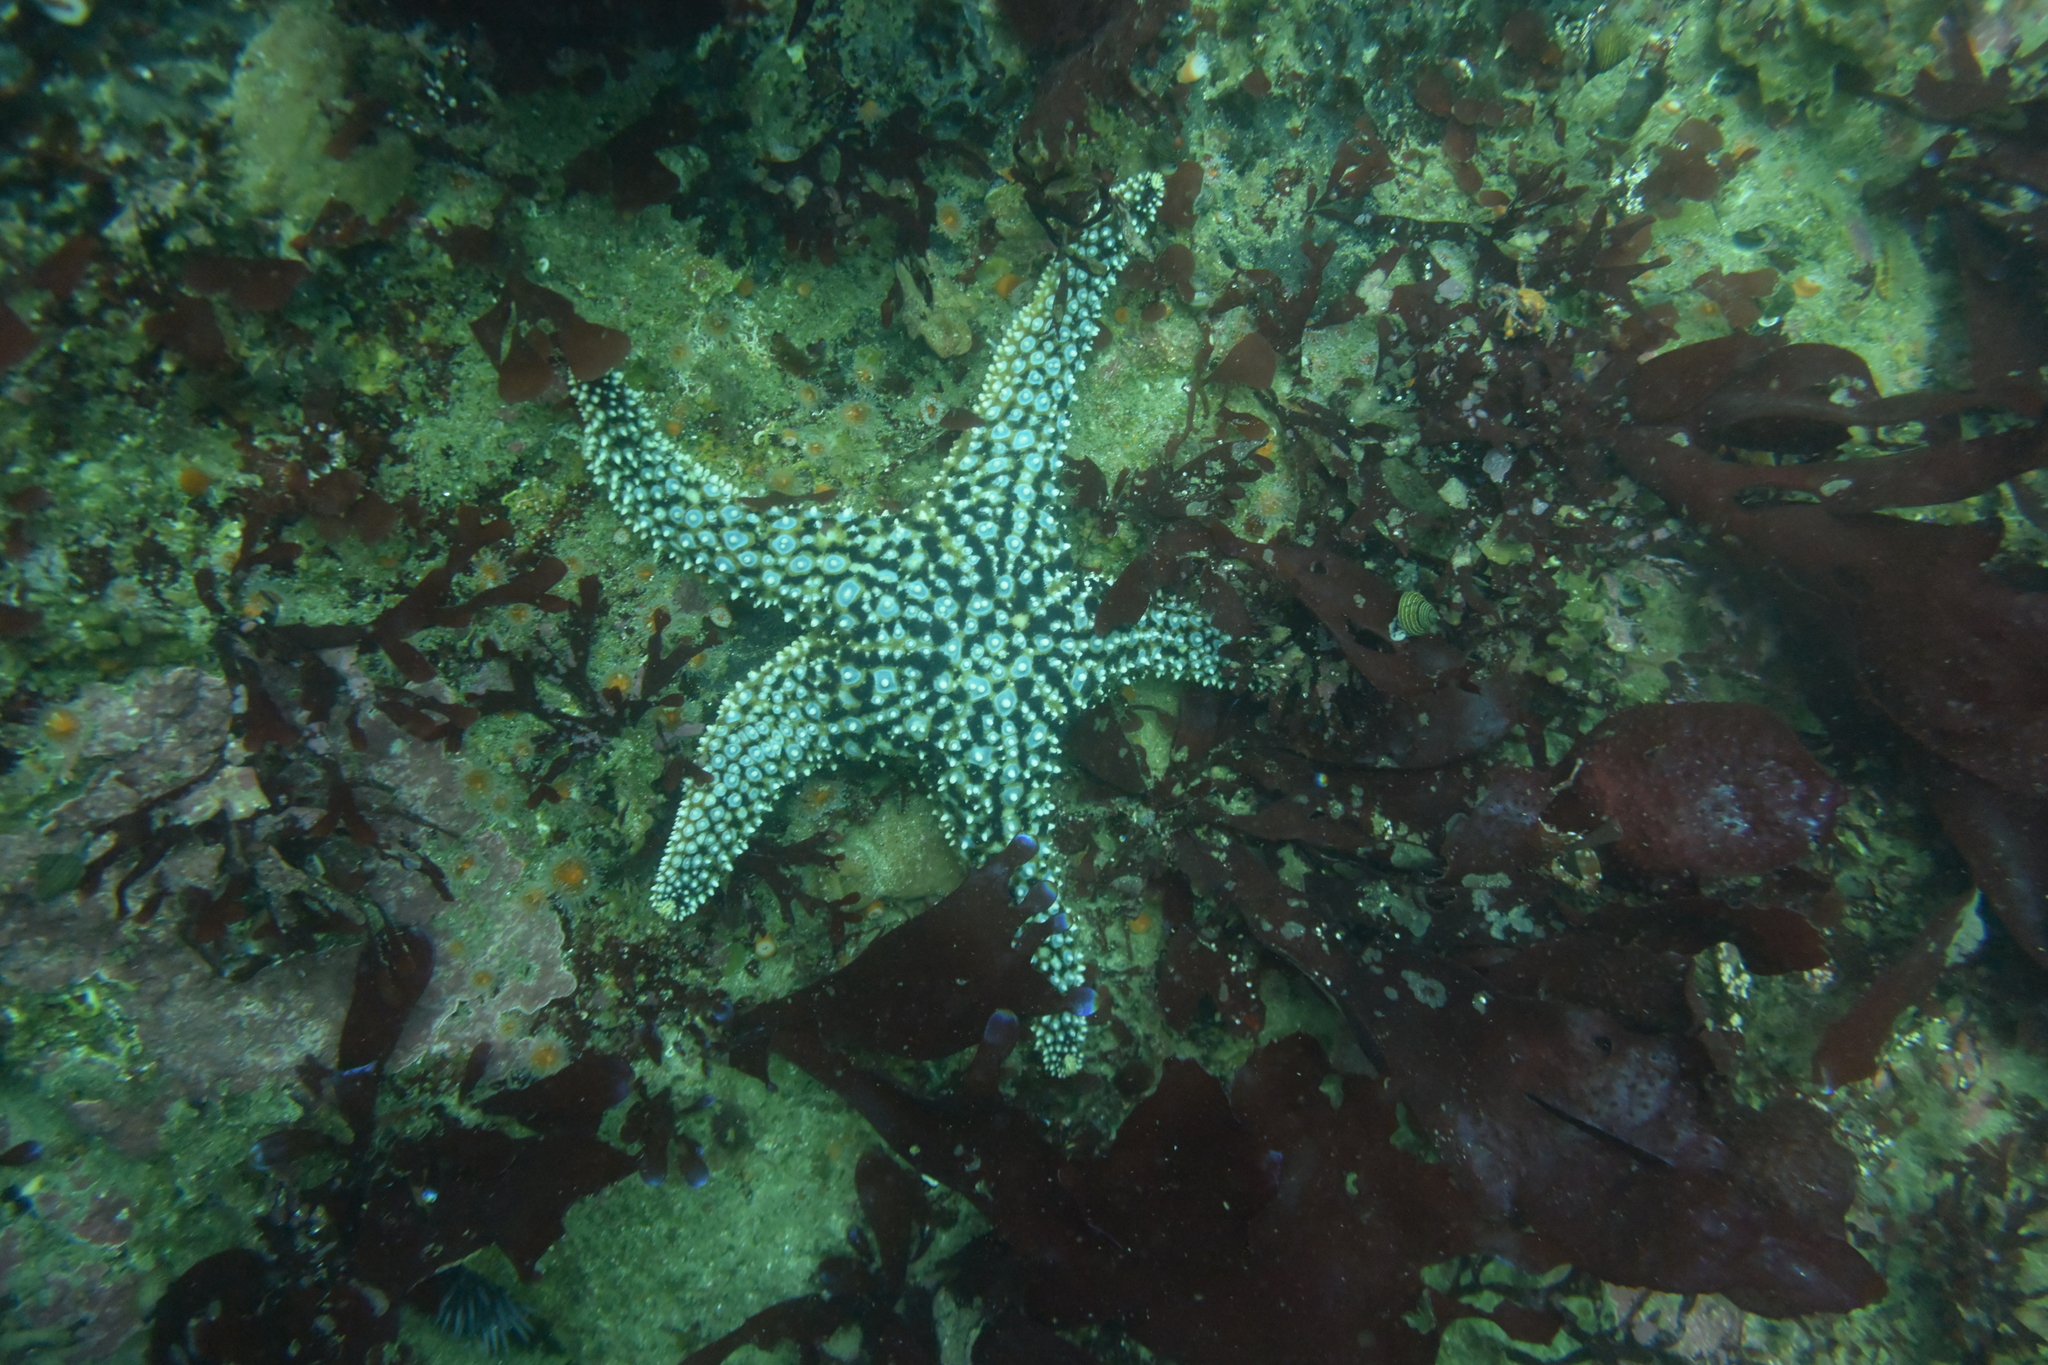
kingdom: Animalia
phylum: Echinodermata
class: Asteroidea
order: Forcipulatida
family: Asteriidae
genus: Pisaster
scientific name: Pisaster giganteus
